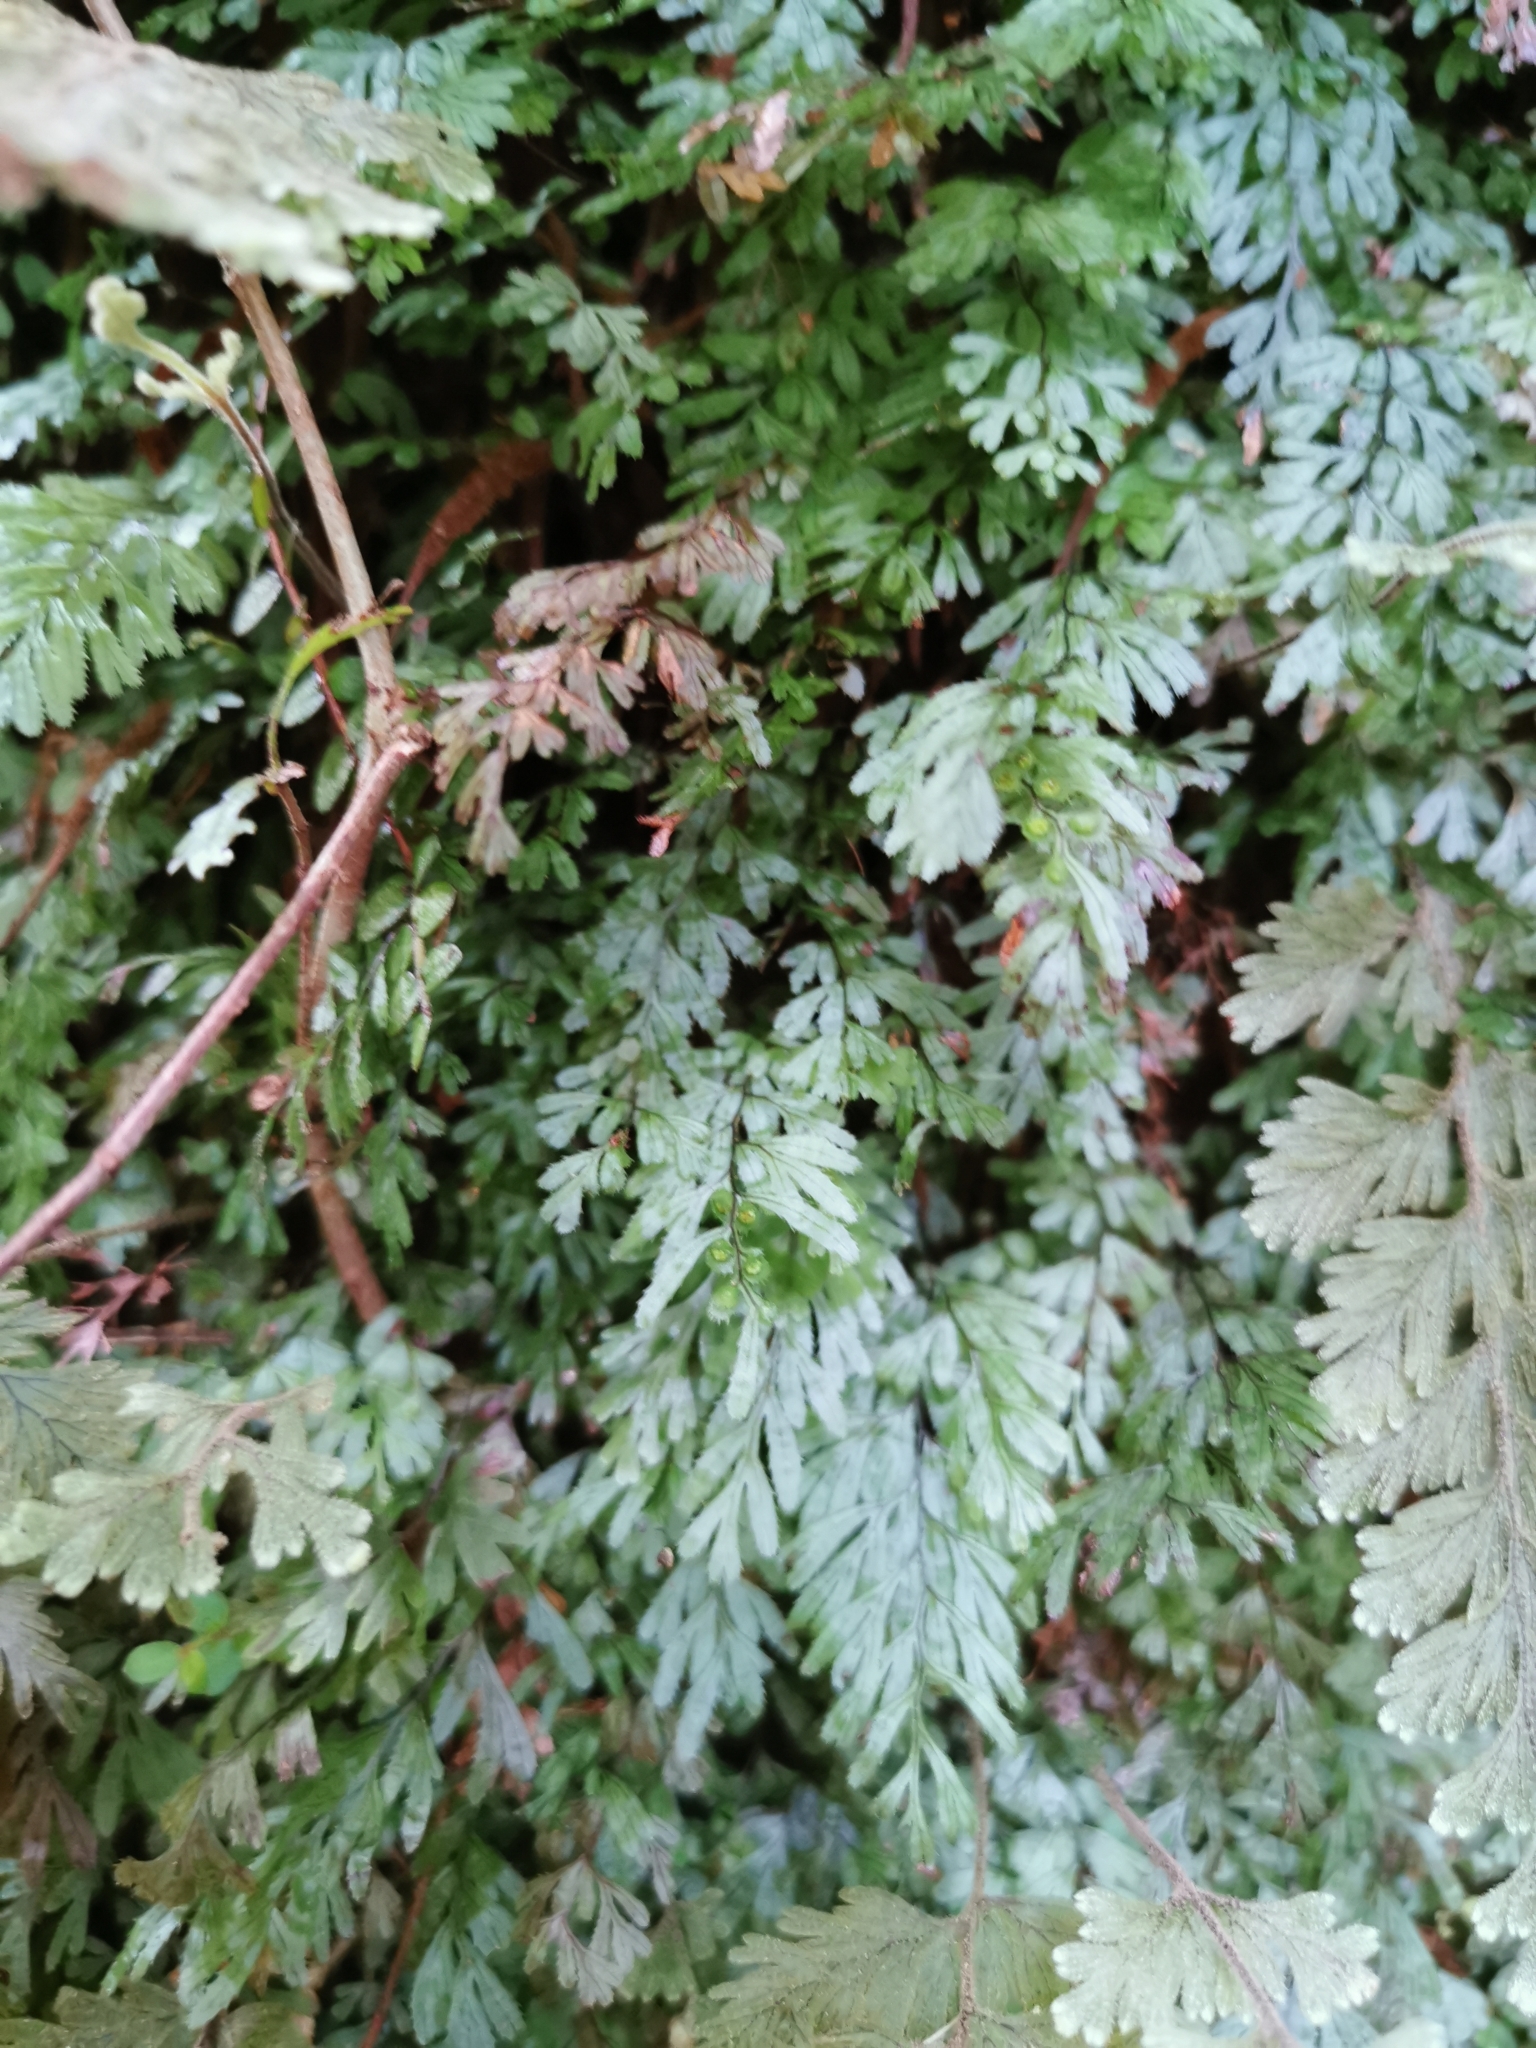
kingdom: Plantae
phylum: Tracheophyta
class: Polypodiopsida
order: Hymenophyllales
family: Hymenophyllaceae
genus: Hymenophyllum
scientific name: Hymenophyllum revolutum
